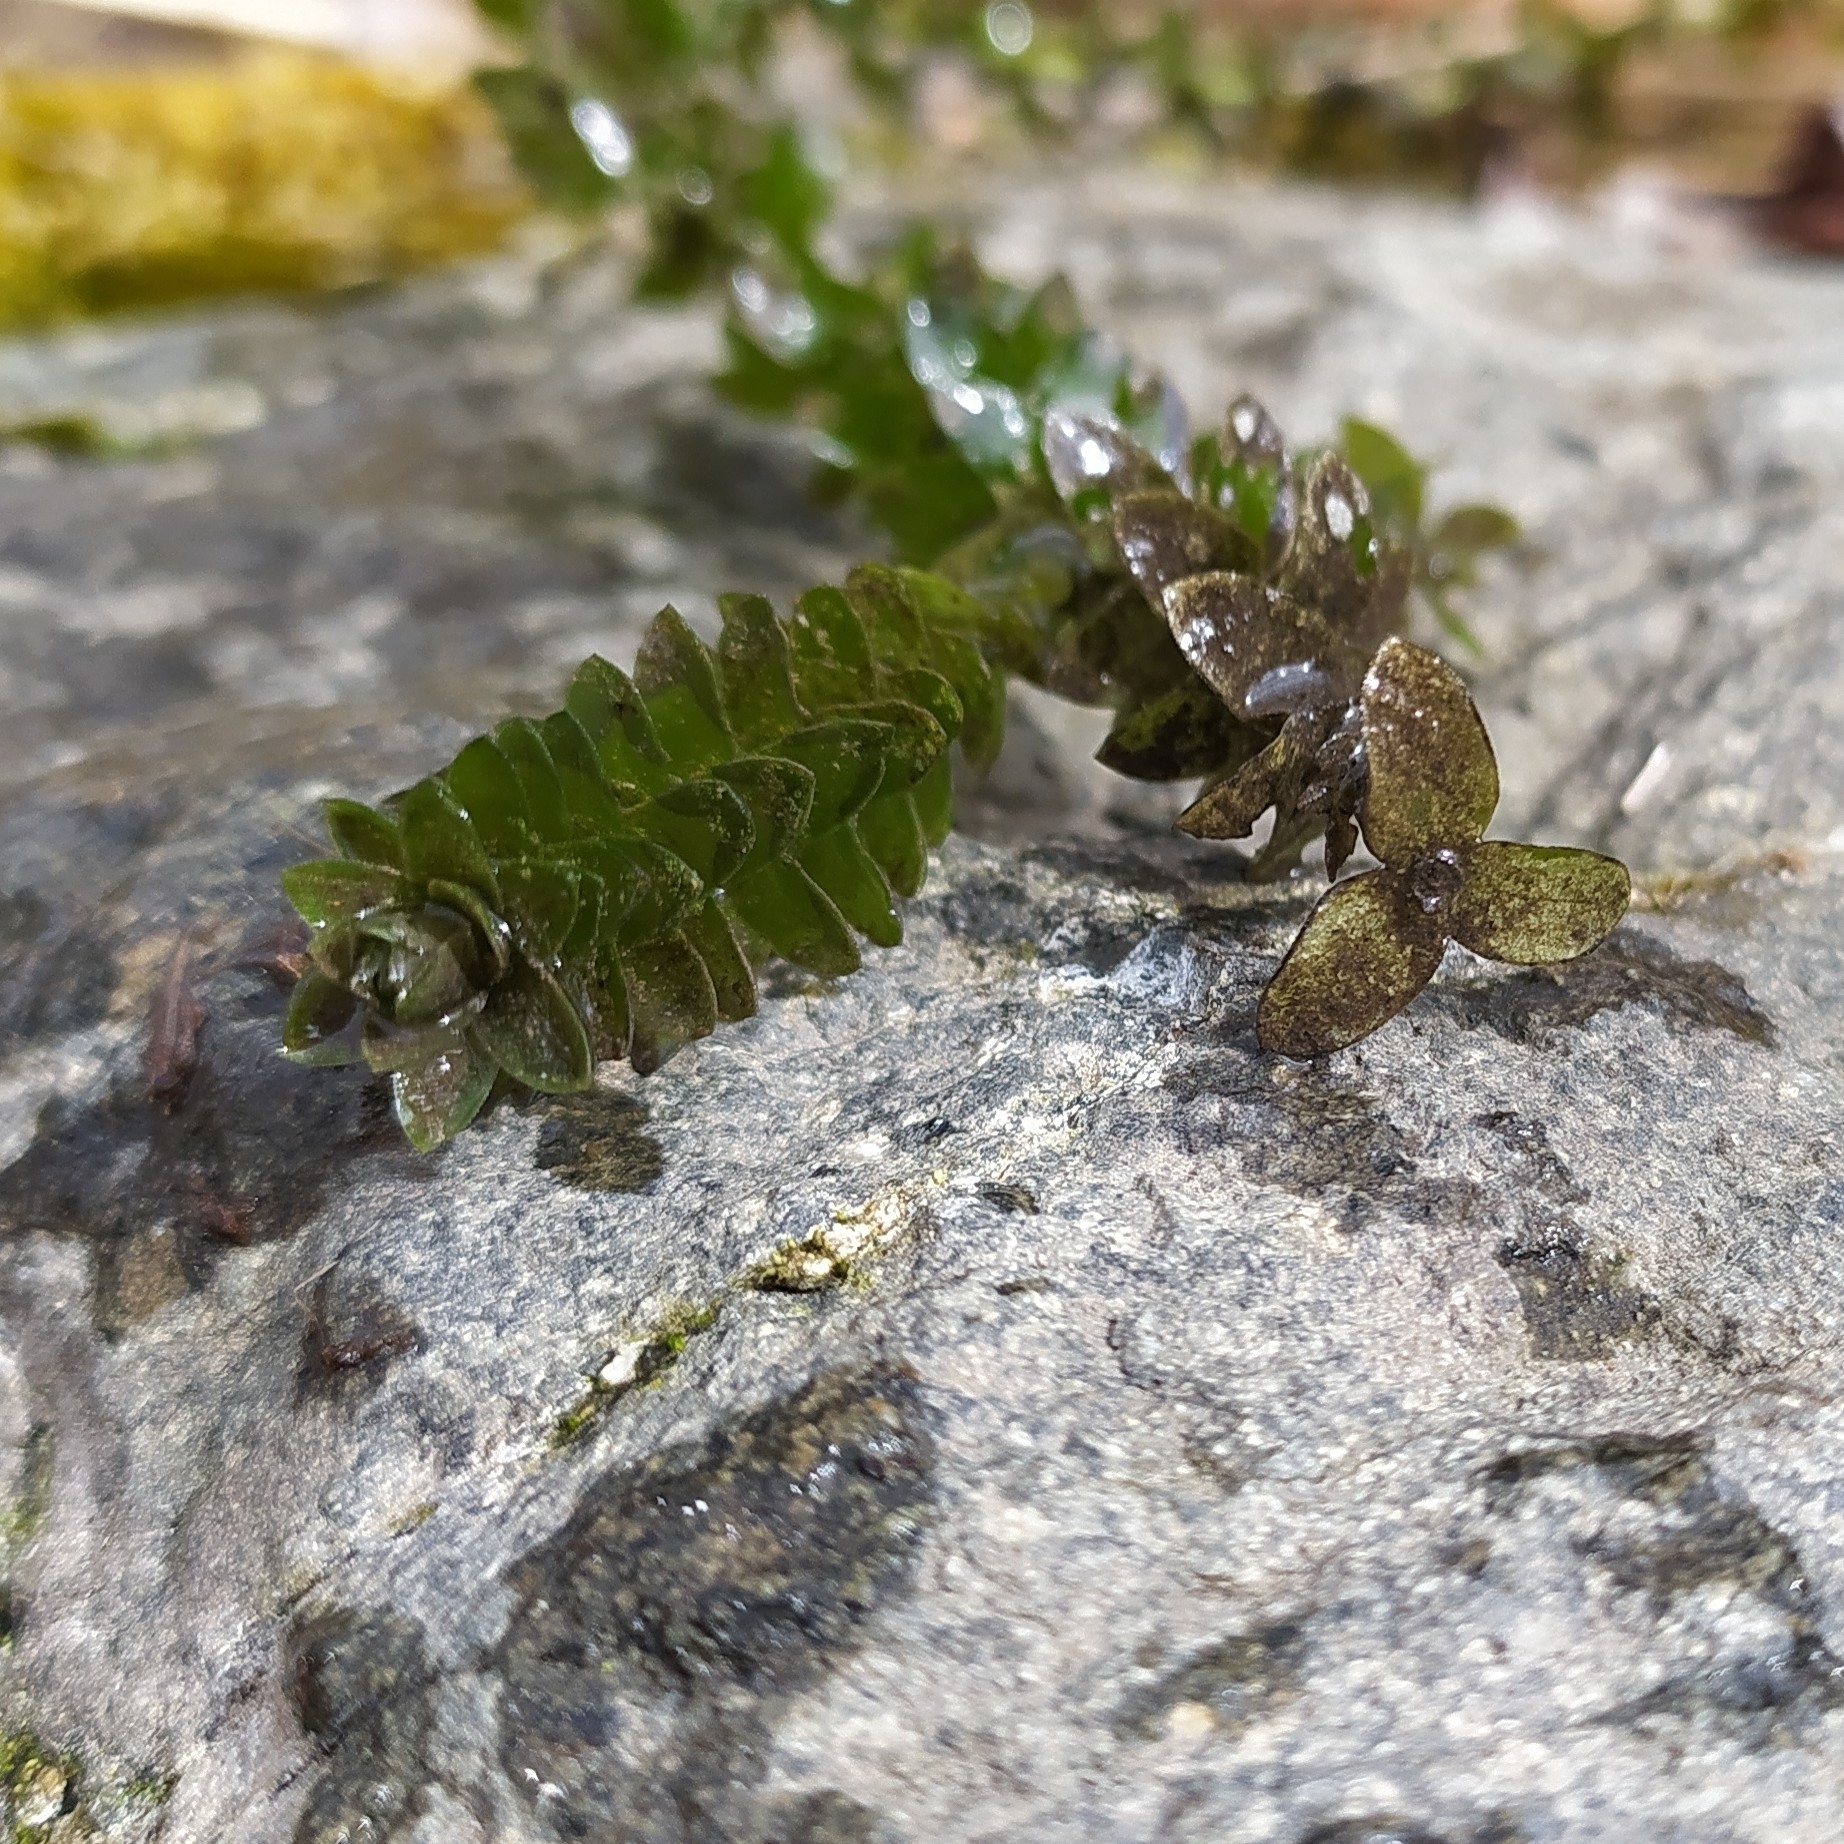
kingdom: Plantae
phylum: Tracheophyta
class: Liliopsida
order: Alismatales
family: Hydrocharitaceae
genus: Elodea
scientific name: Elodea canadensis
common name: Canadian waterweed
